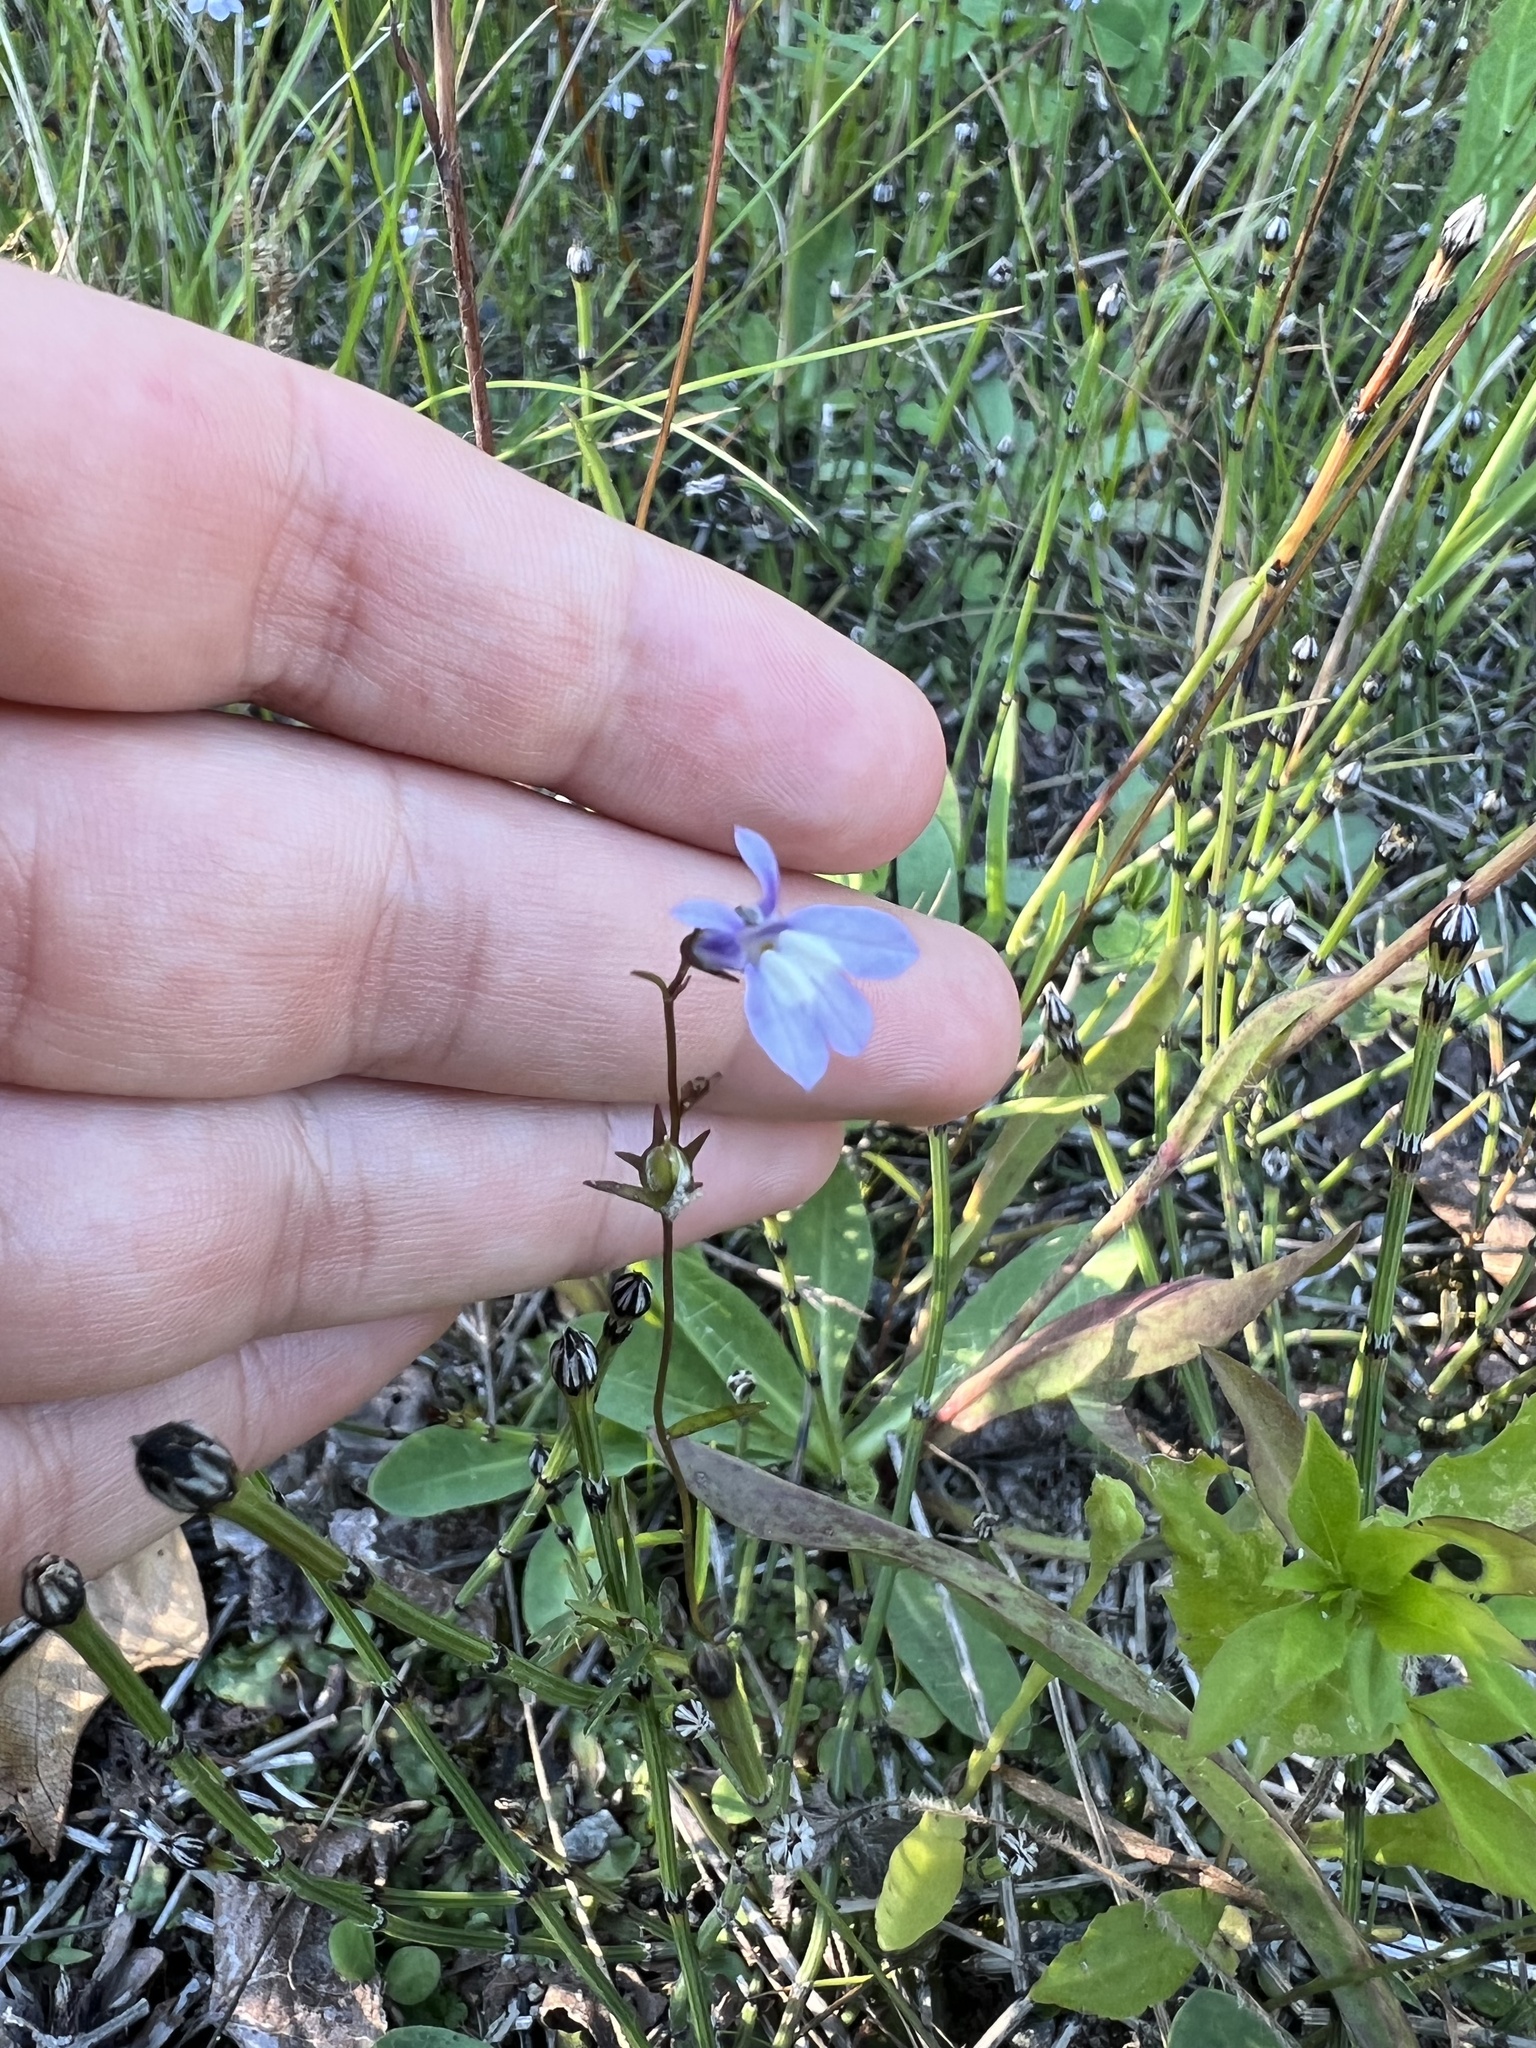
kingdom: Plantae
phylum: Tracheophyta
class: Magnoliopsida
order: Asterales
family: Campanulaceae
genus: Lobelia
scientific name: Lobelia kalmii
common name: Kalm's lobelia
